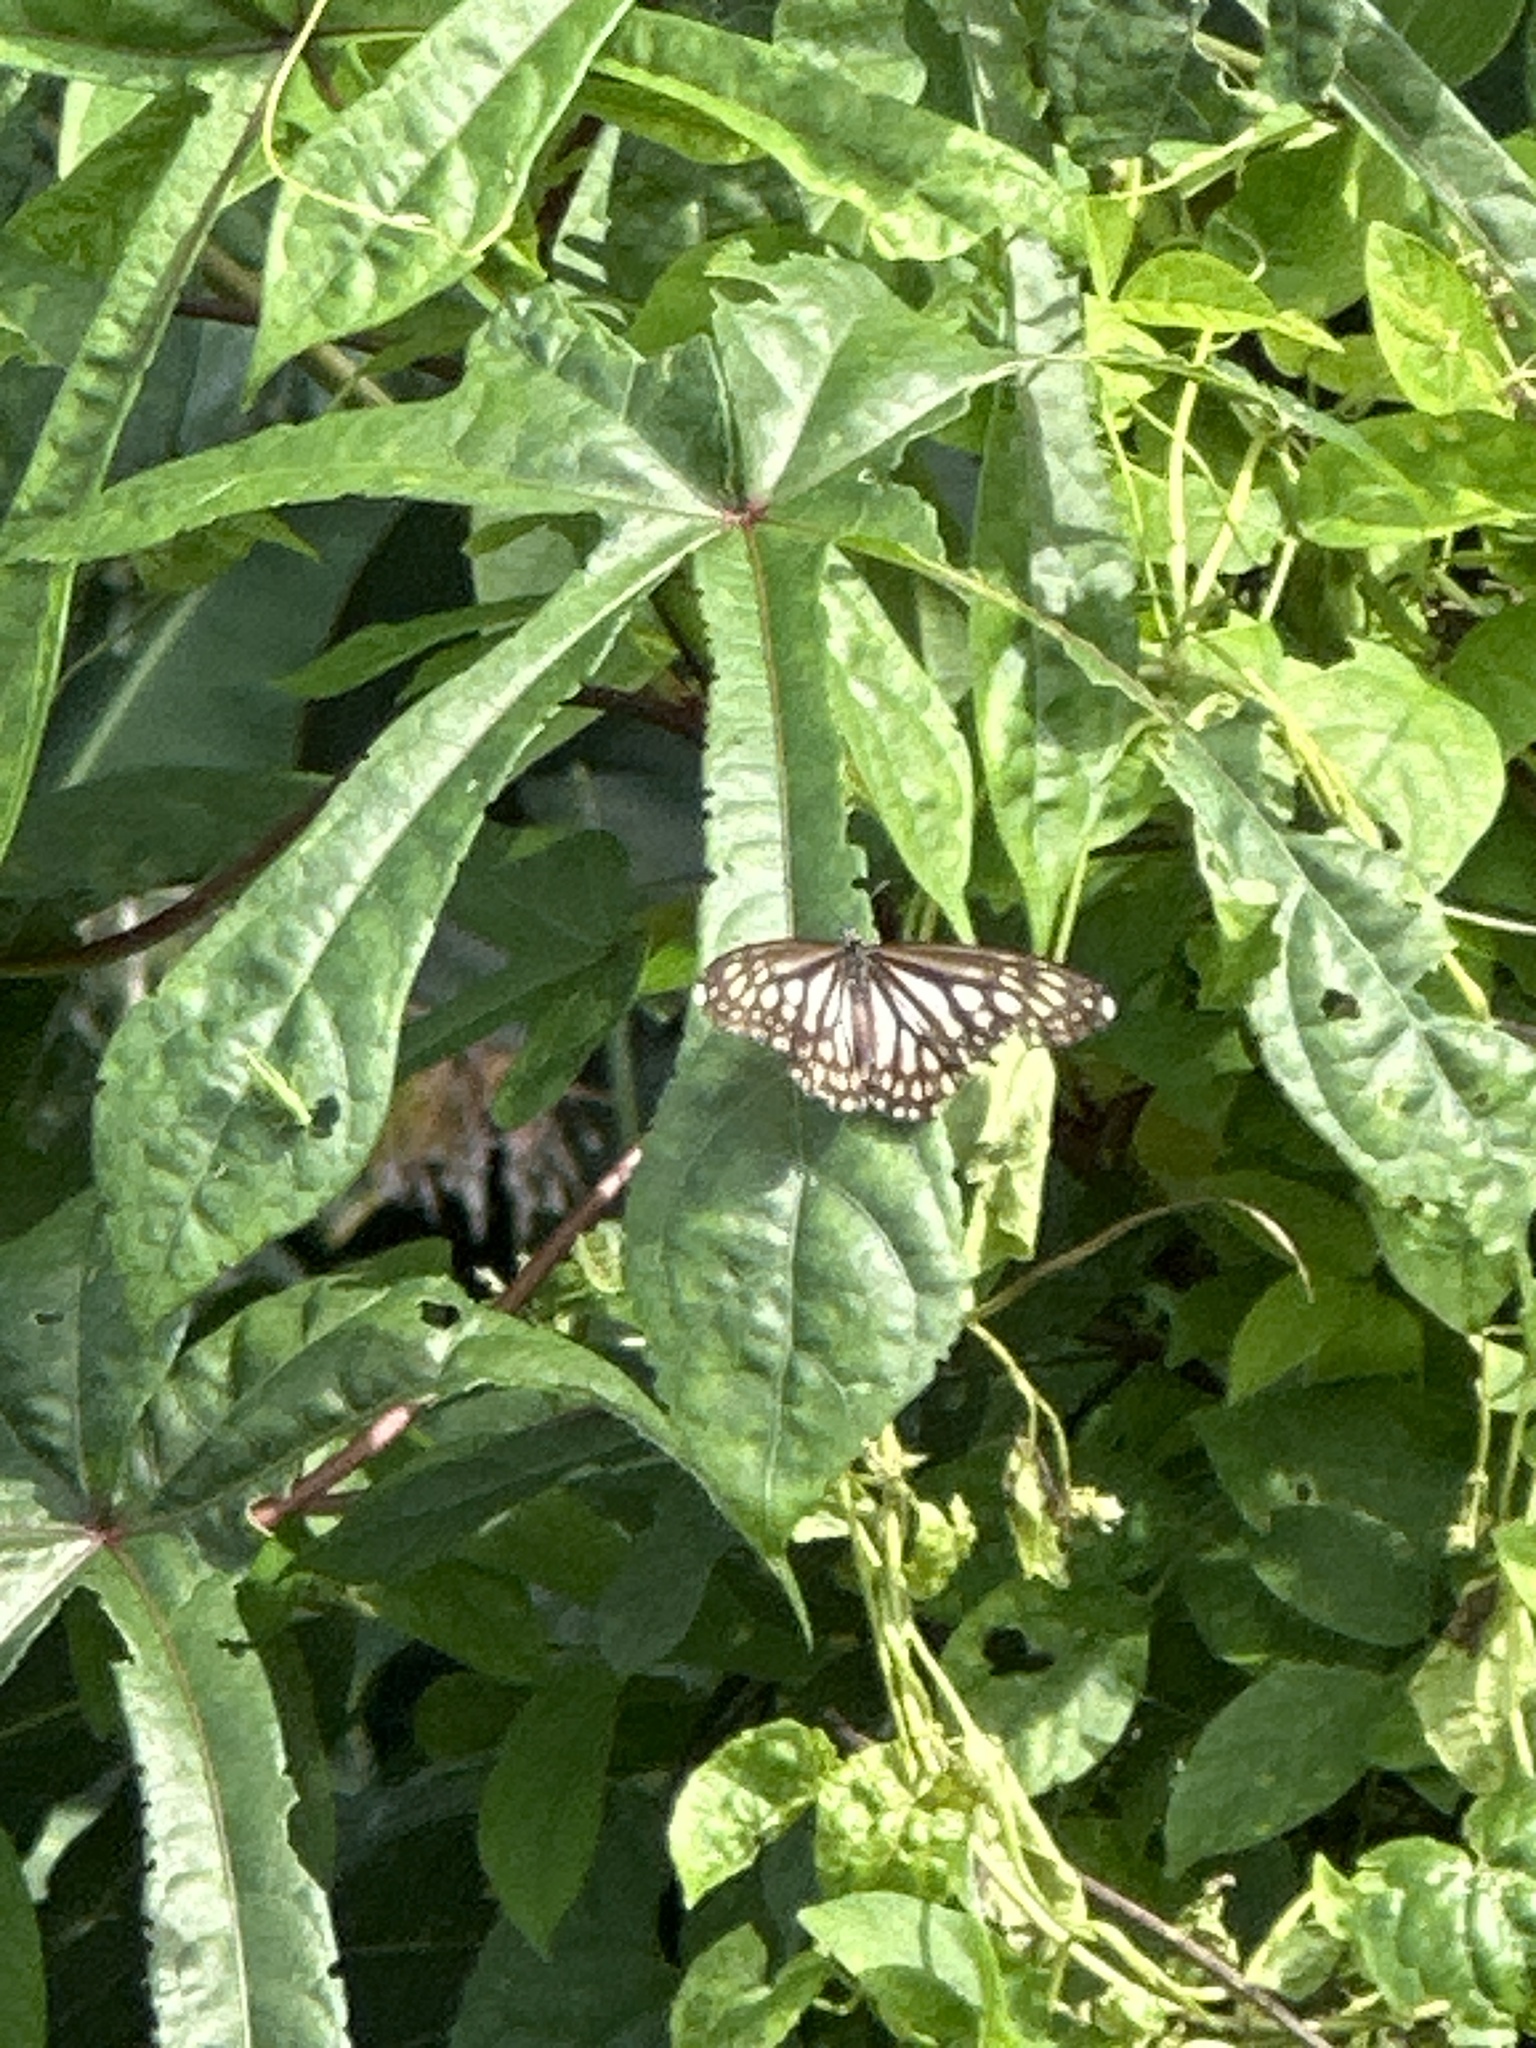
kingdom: Animalia
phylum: Arthropoda
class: Insecta
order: Lepidoptera
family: Nymphalidae
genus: Danaus
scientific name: Danaus ismare
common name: Ismare tiger butterfly
